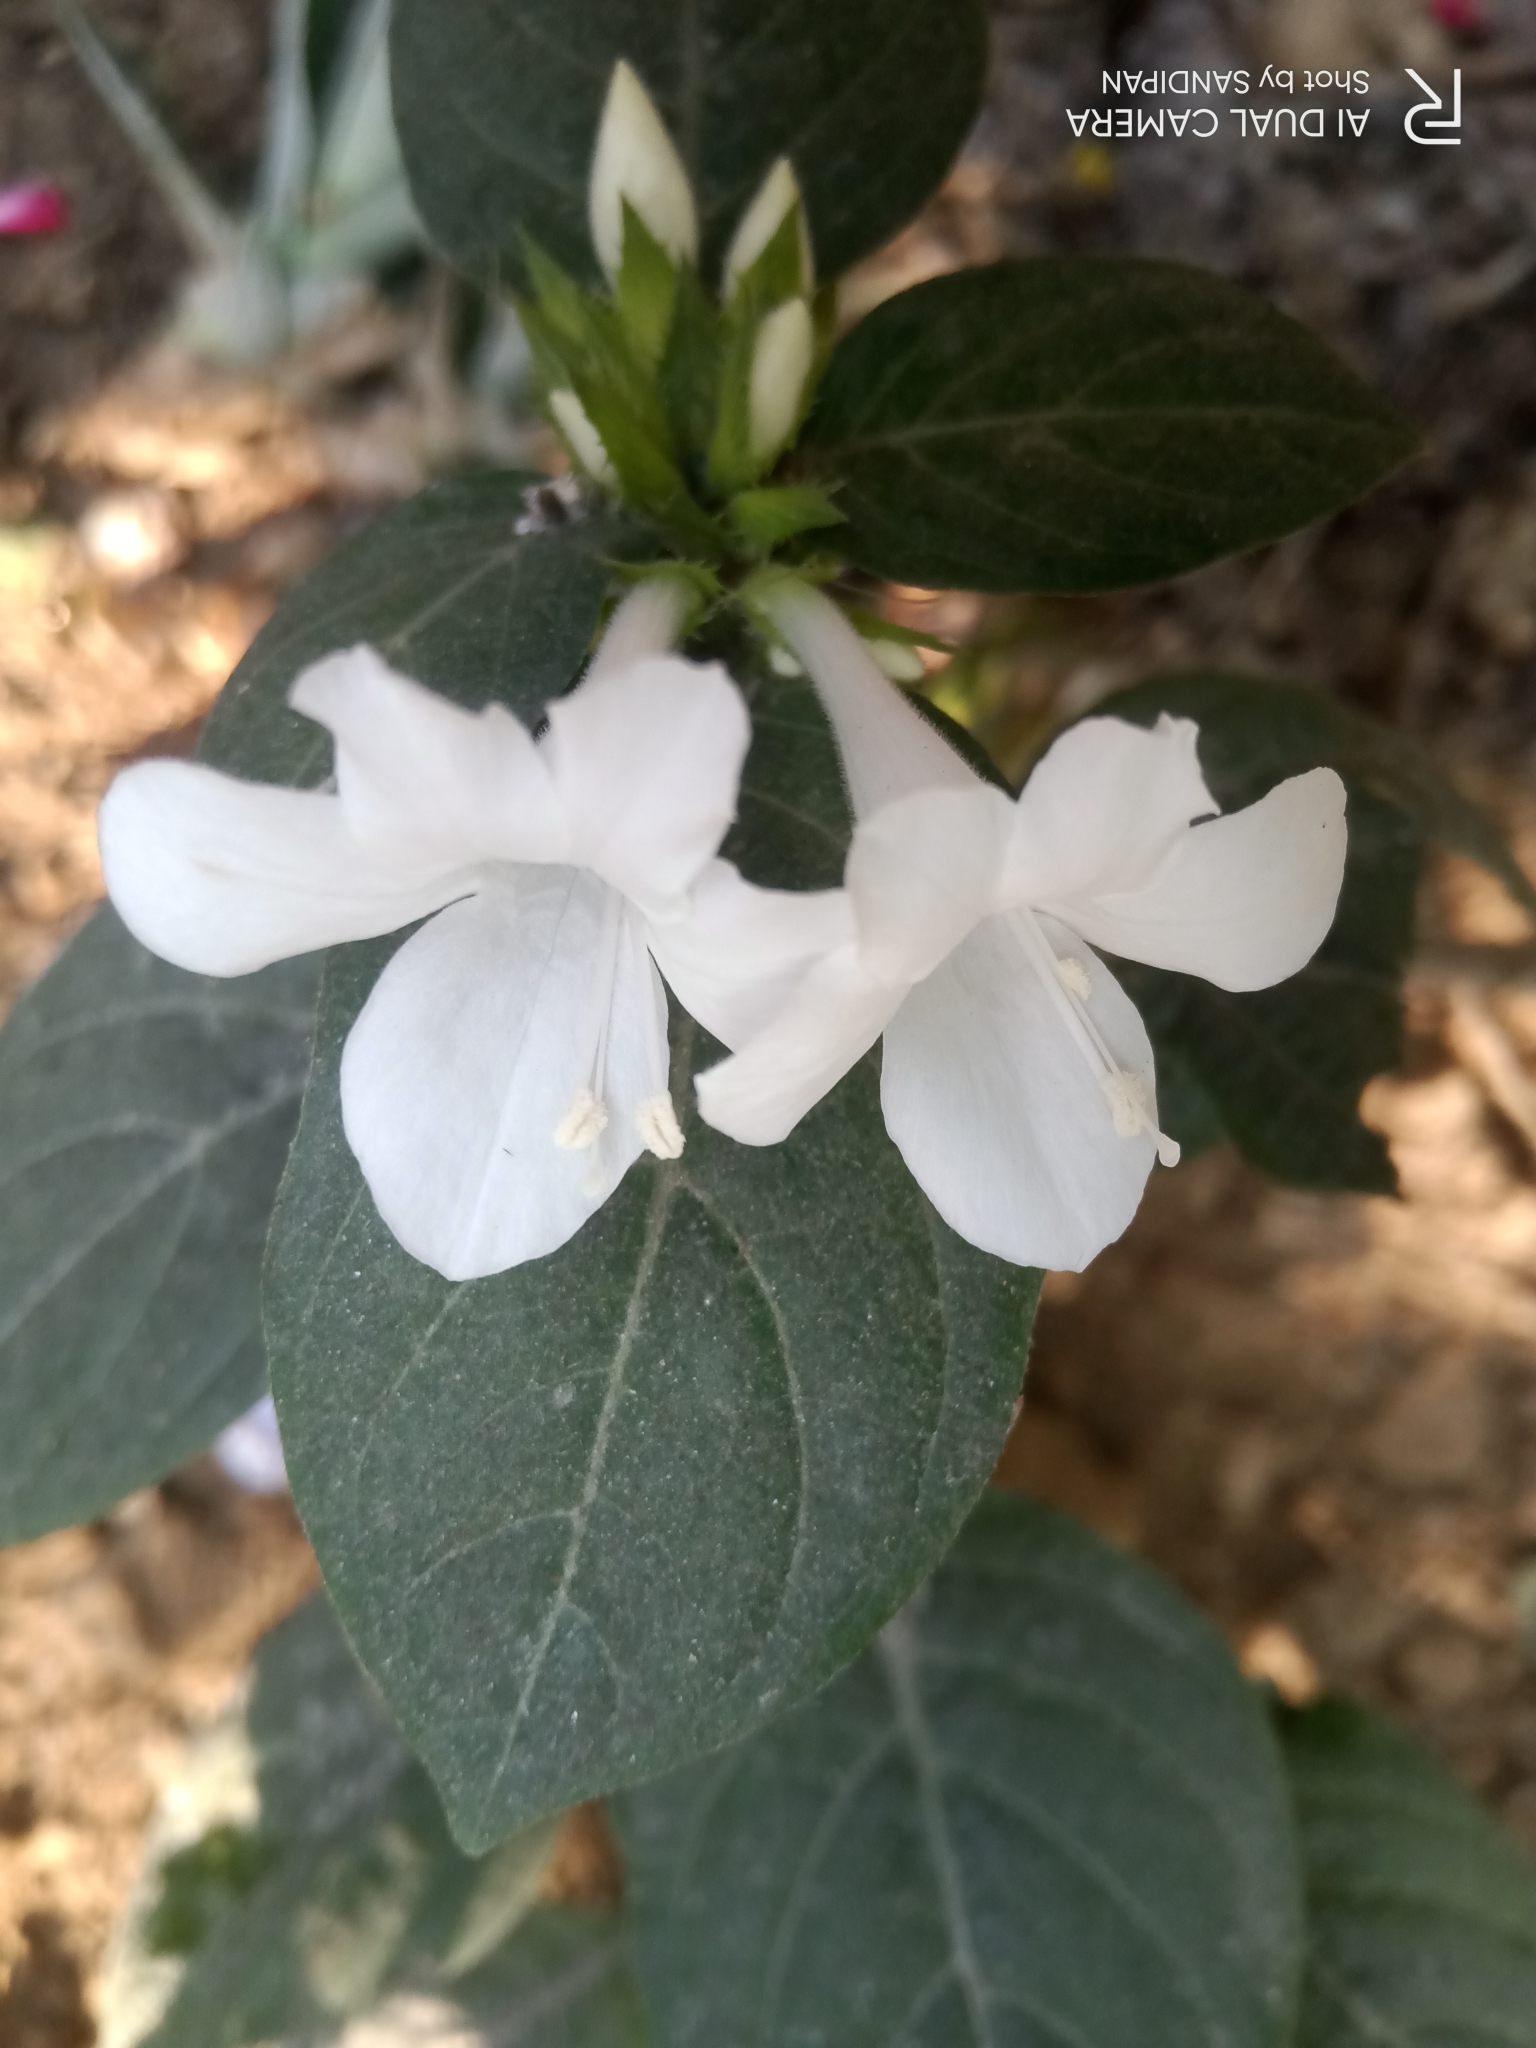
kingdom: Plantae
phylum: Tracheophyta
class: Magnoliopsida
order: Lamiales
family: Acanthaceae
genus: Barleria
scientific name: Barleria cristata
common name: Crested philippine violet
